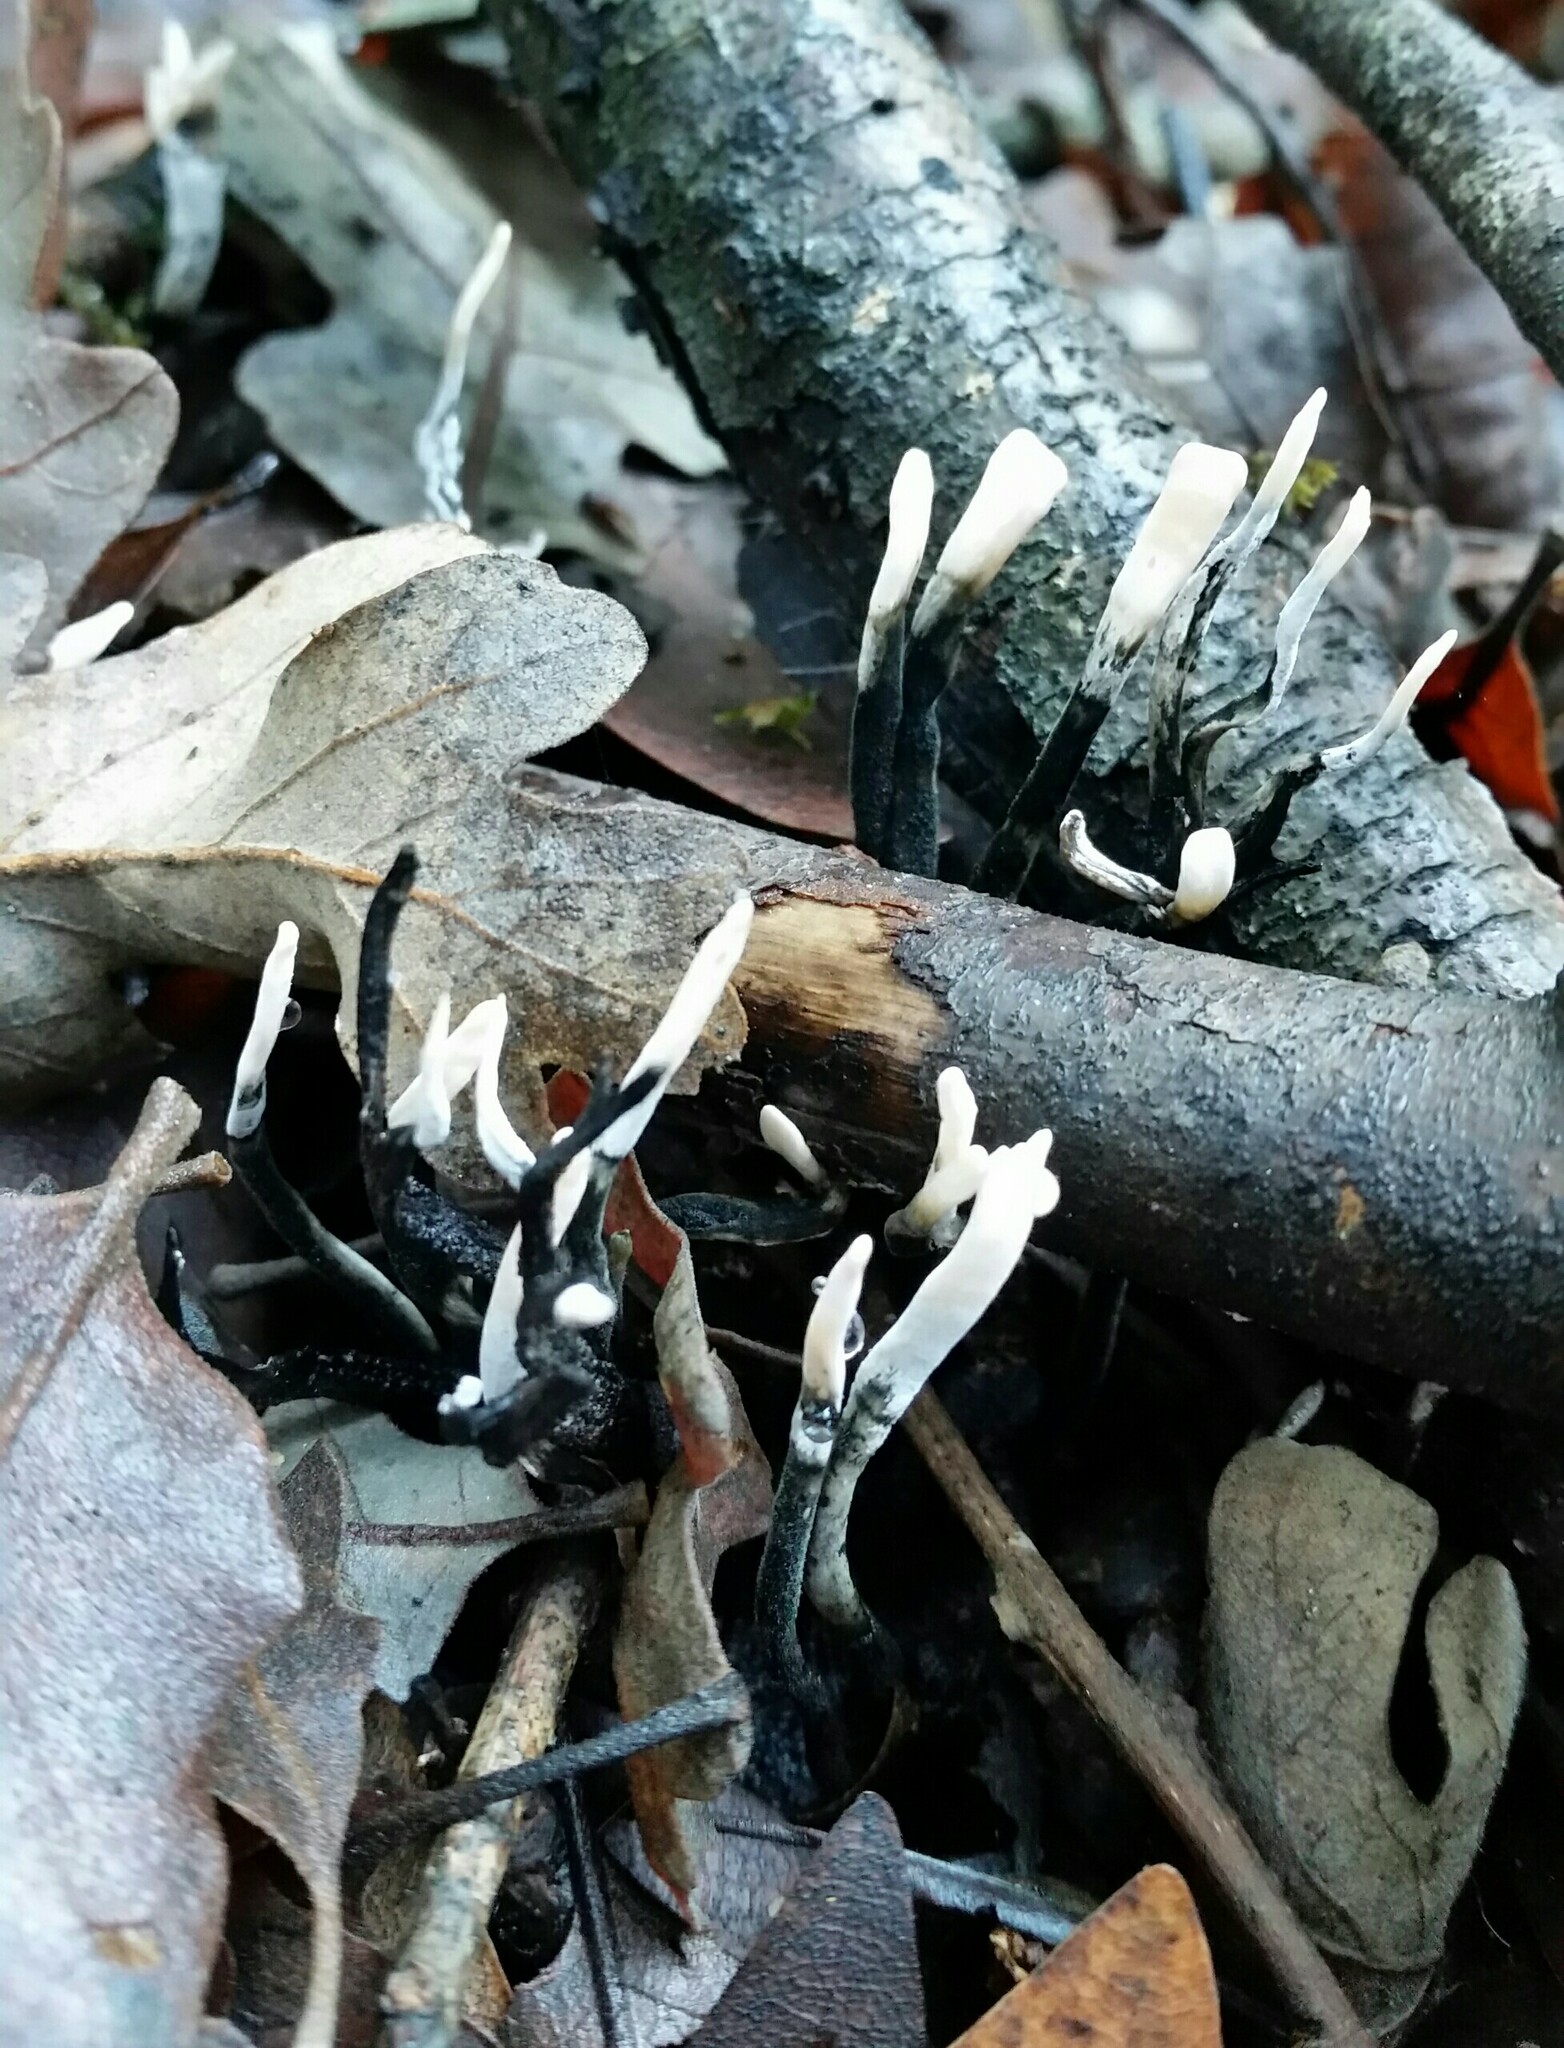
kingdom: Fungi
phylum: Ascomycota
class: Sordariomycetes
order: Xylariales
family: Xylariaceae
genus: Xylaria
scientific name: Xylaria hypoxylon
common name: Candle-snuff fungus
